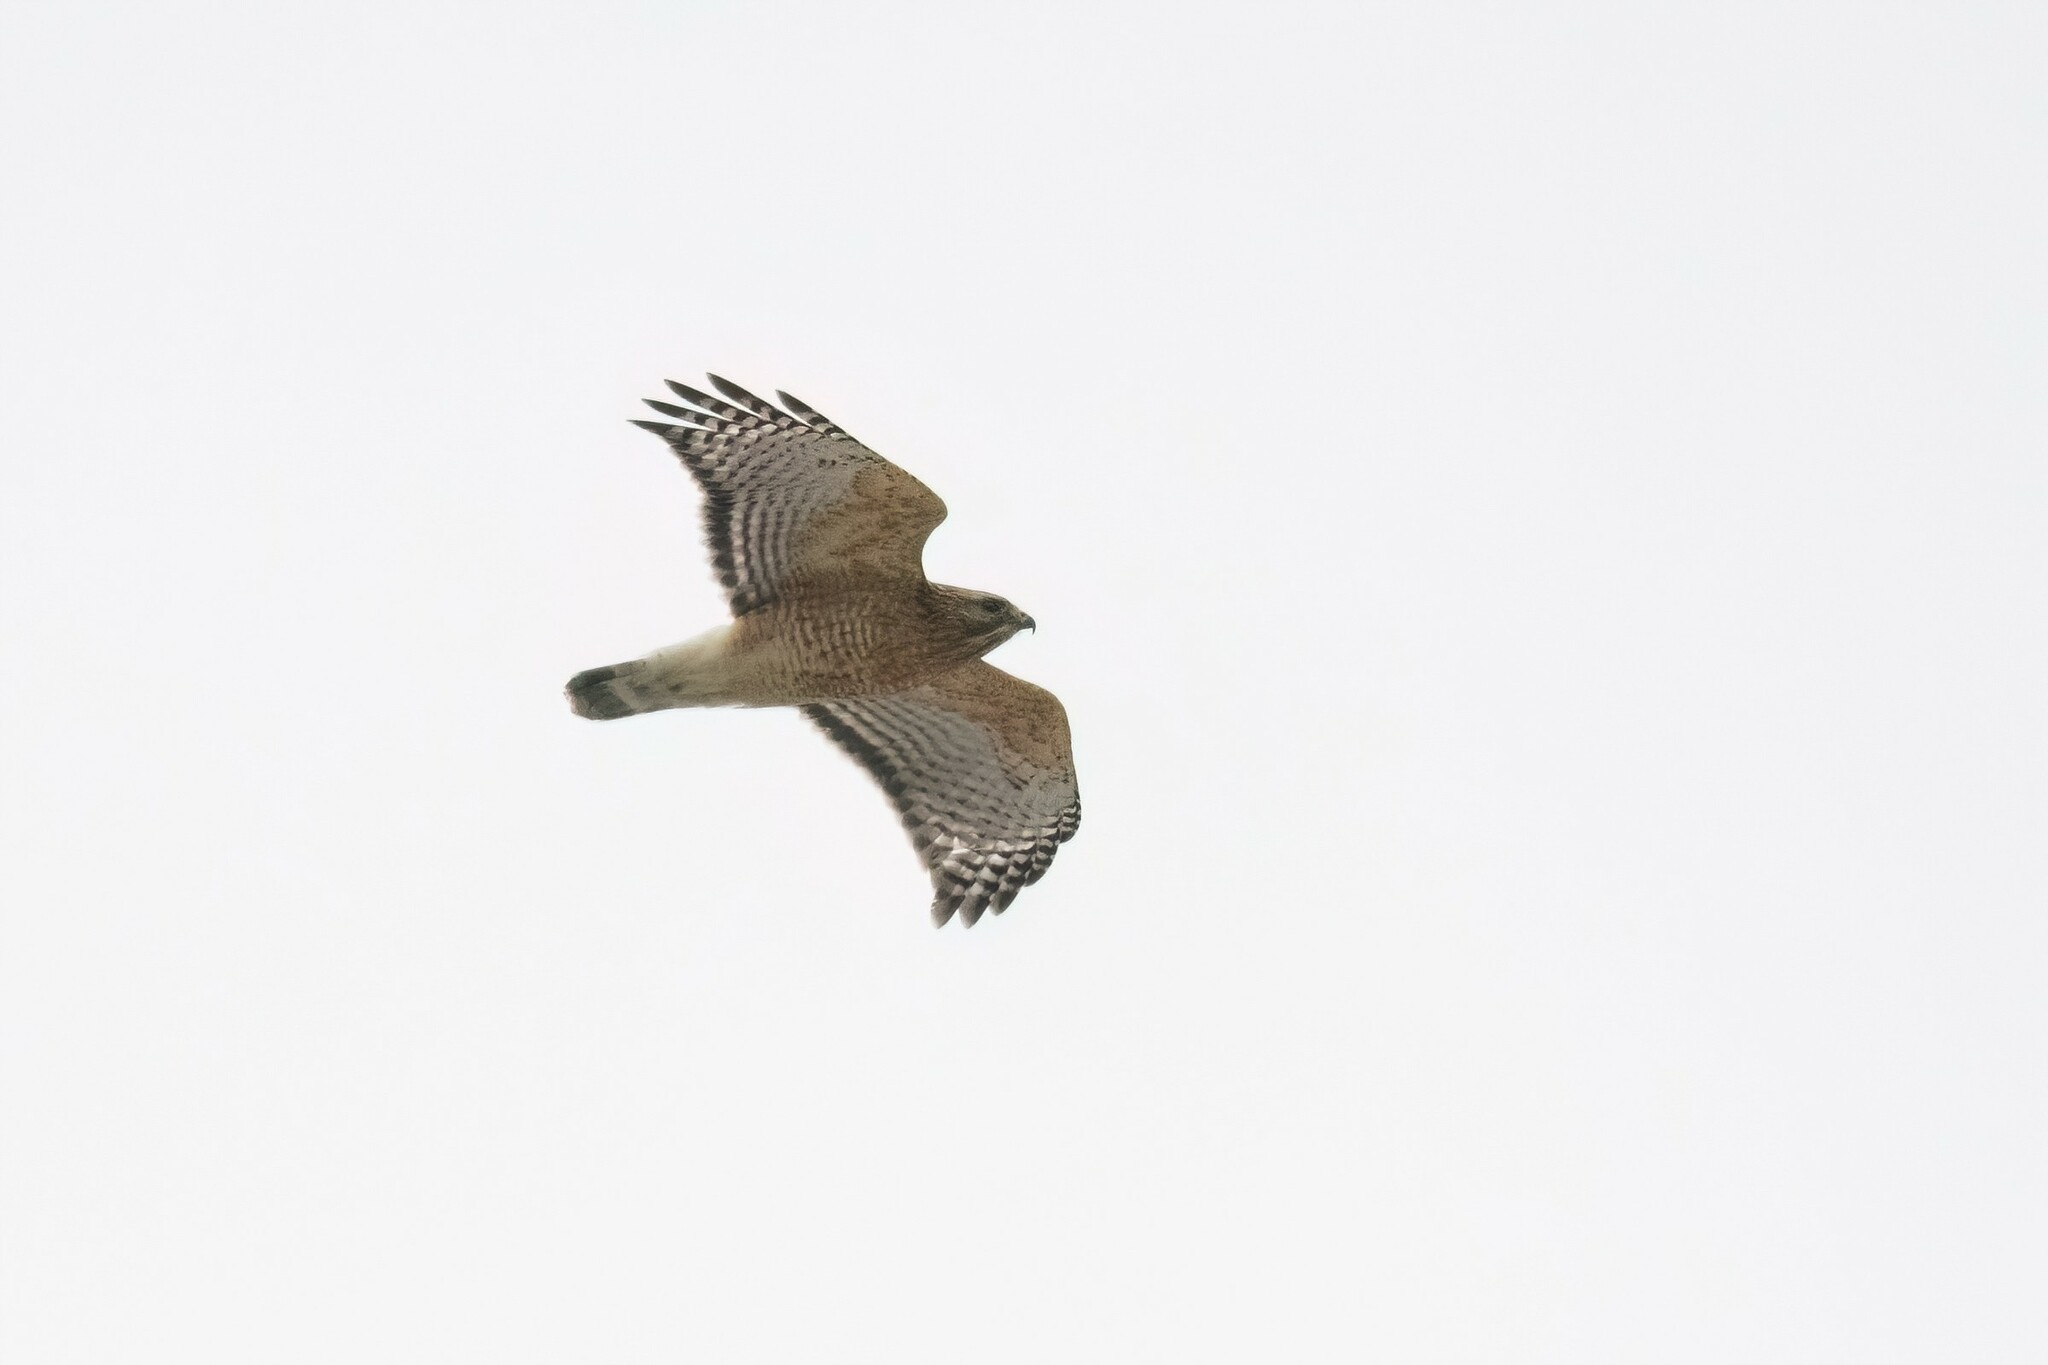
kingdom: Animalia
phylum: Chordata
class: Aves
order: Accipitriformes
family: Accipitridae
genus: Buteo
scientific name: Buteo lineatus
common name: Red-shouldered hawk
